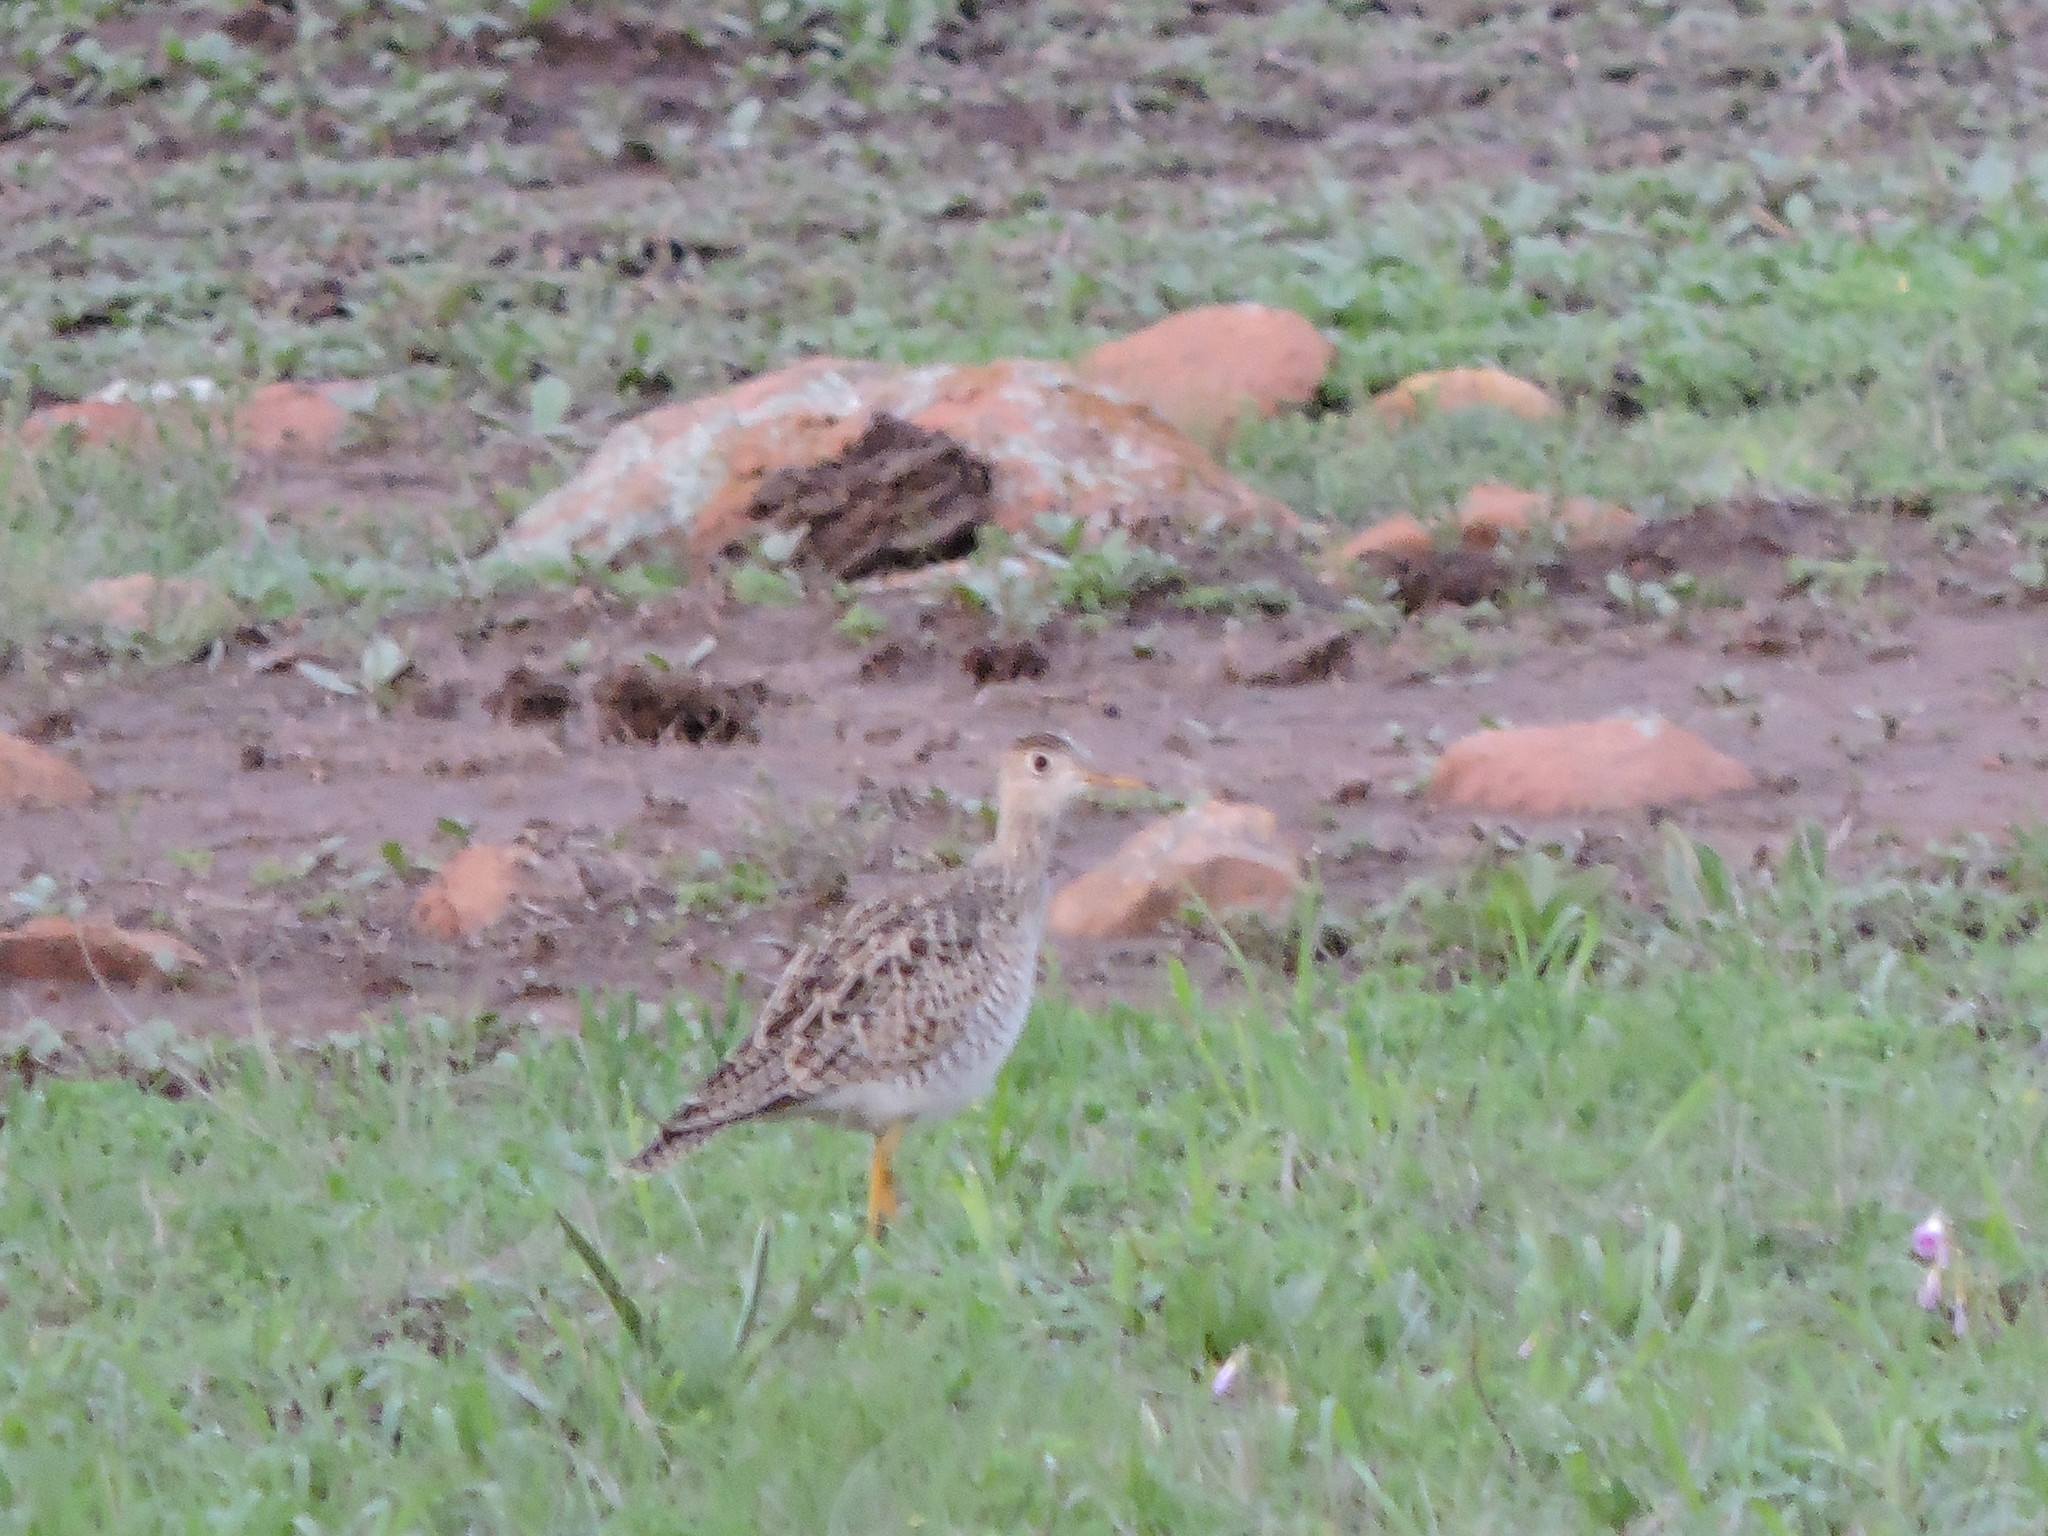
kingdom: Animalia
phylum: Chordata
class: Aves
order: Charadriiformes
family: Scolopacidae
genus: Bartramia
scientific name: Bartramia longicauda
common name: Upland sandpiper
